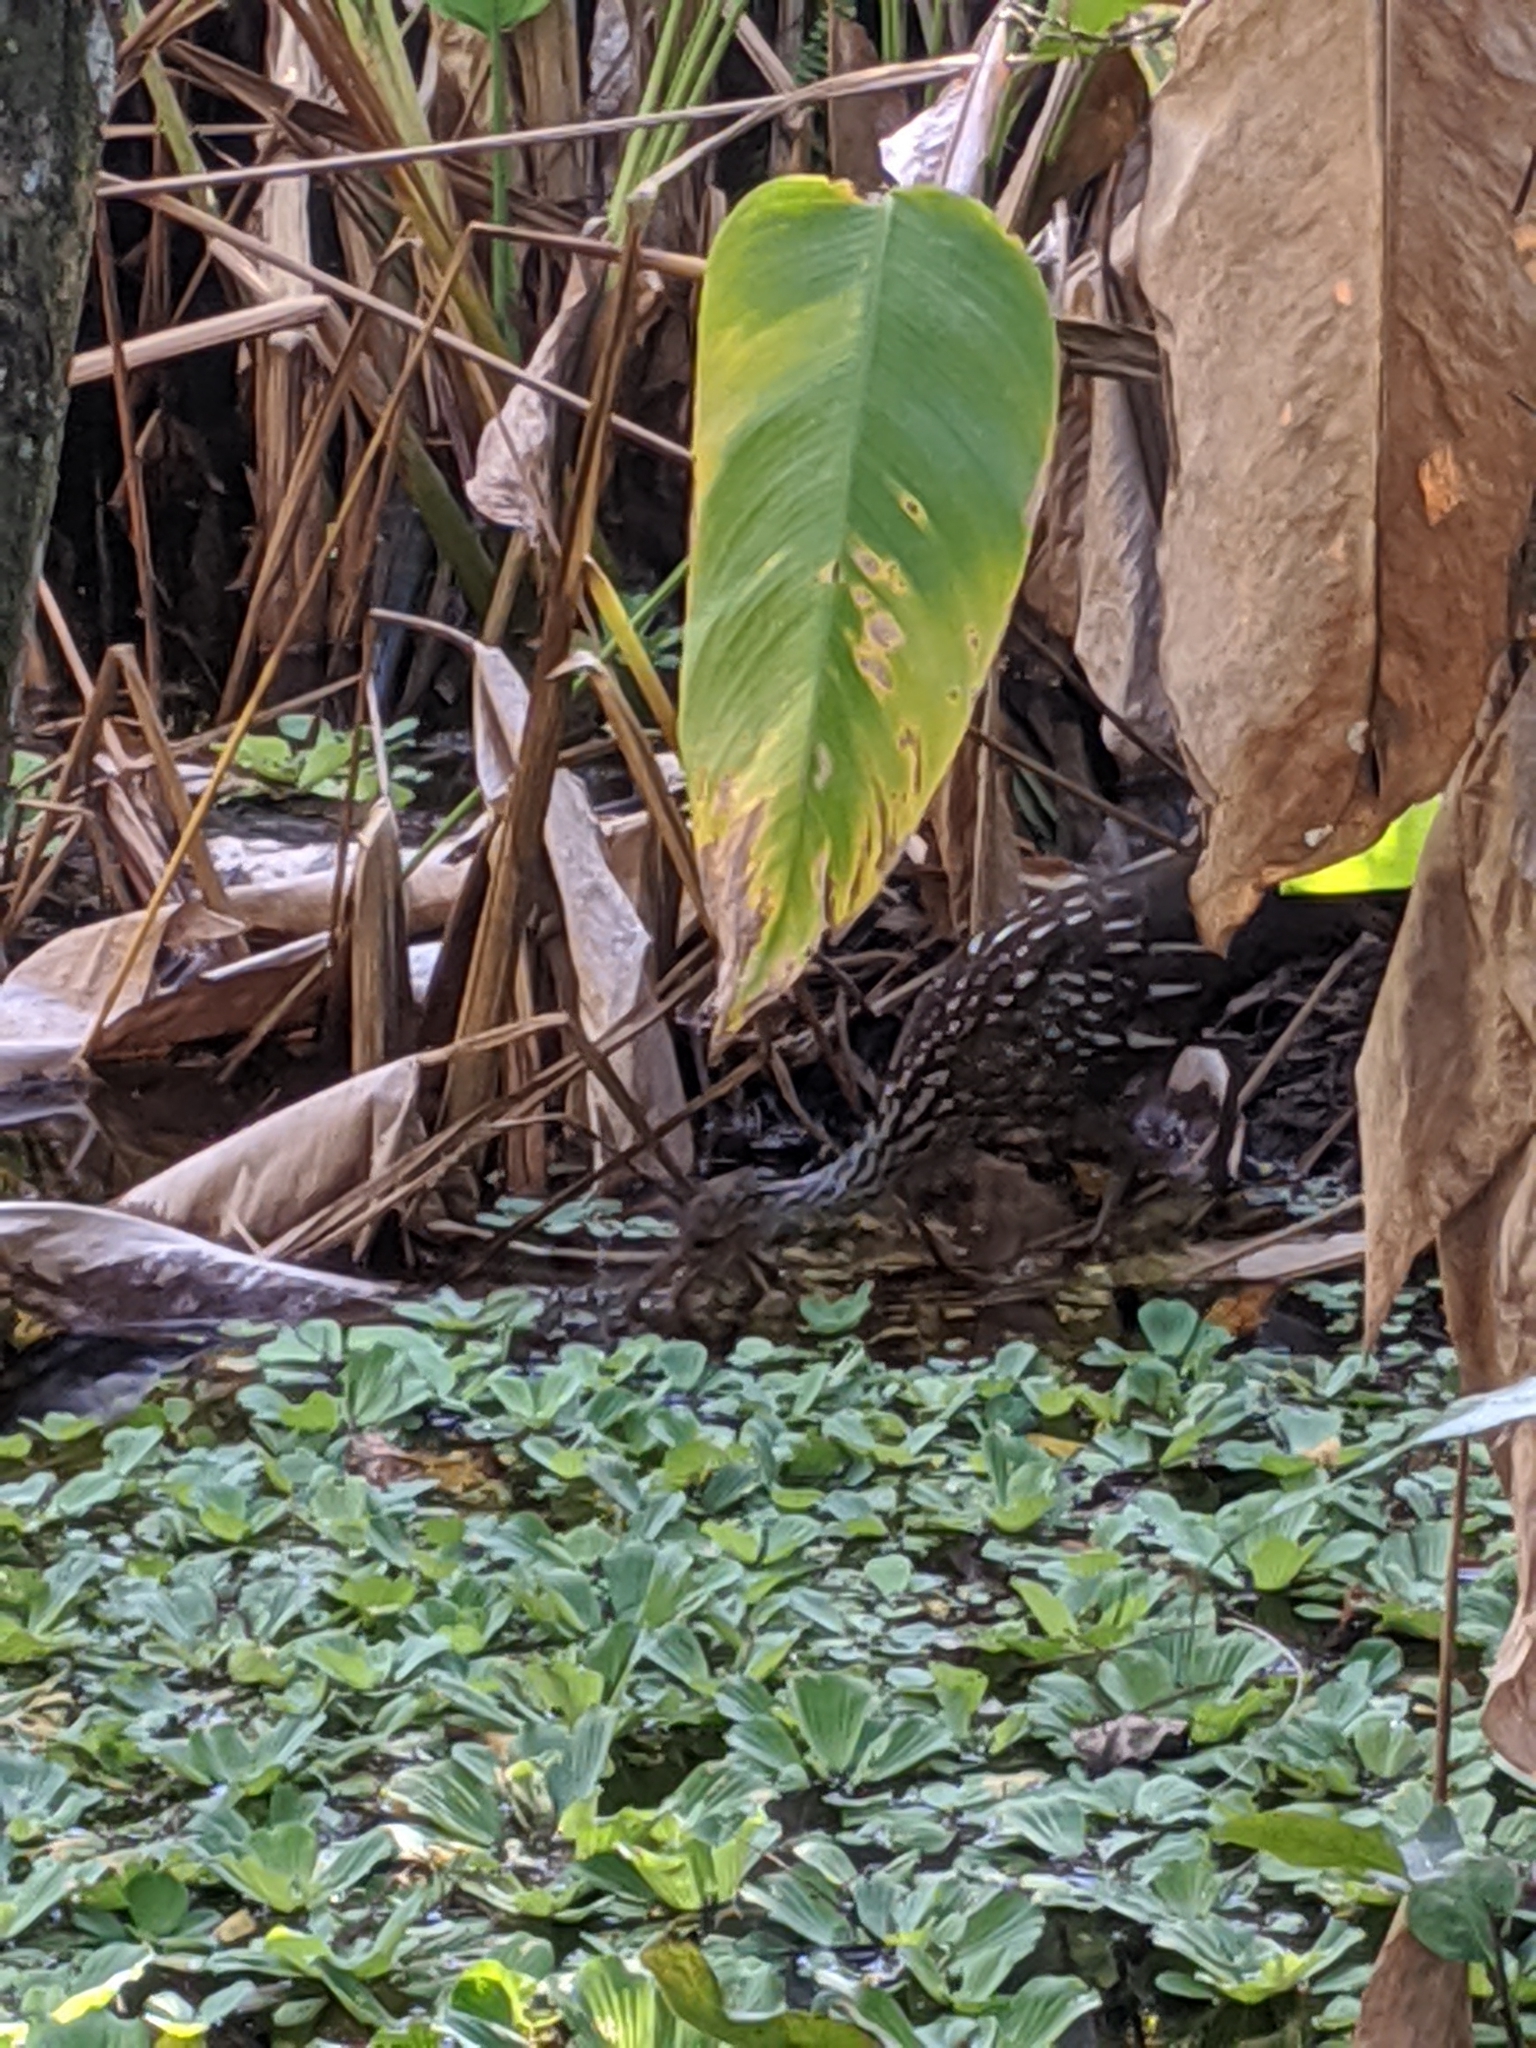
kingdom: Animalia
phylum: Chordata
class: Aves
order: Gruiformes
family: Aramidae
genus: Aramus
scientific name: Aramus guarauna
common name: Limpkin
